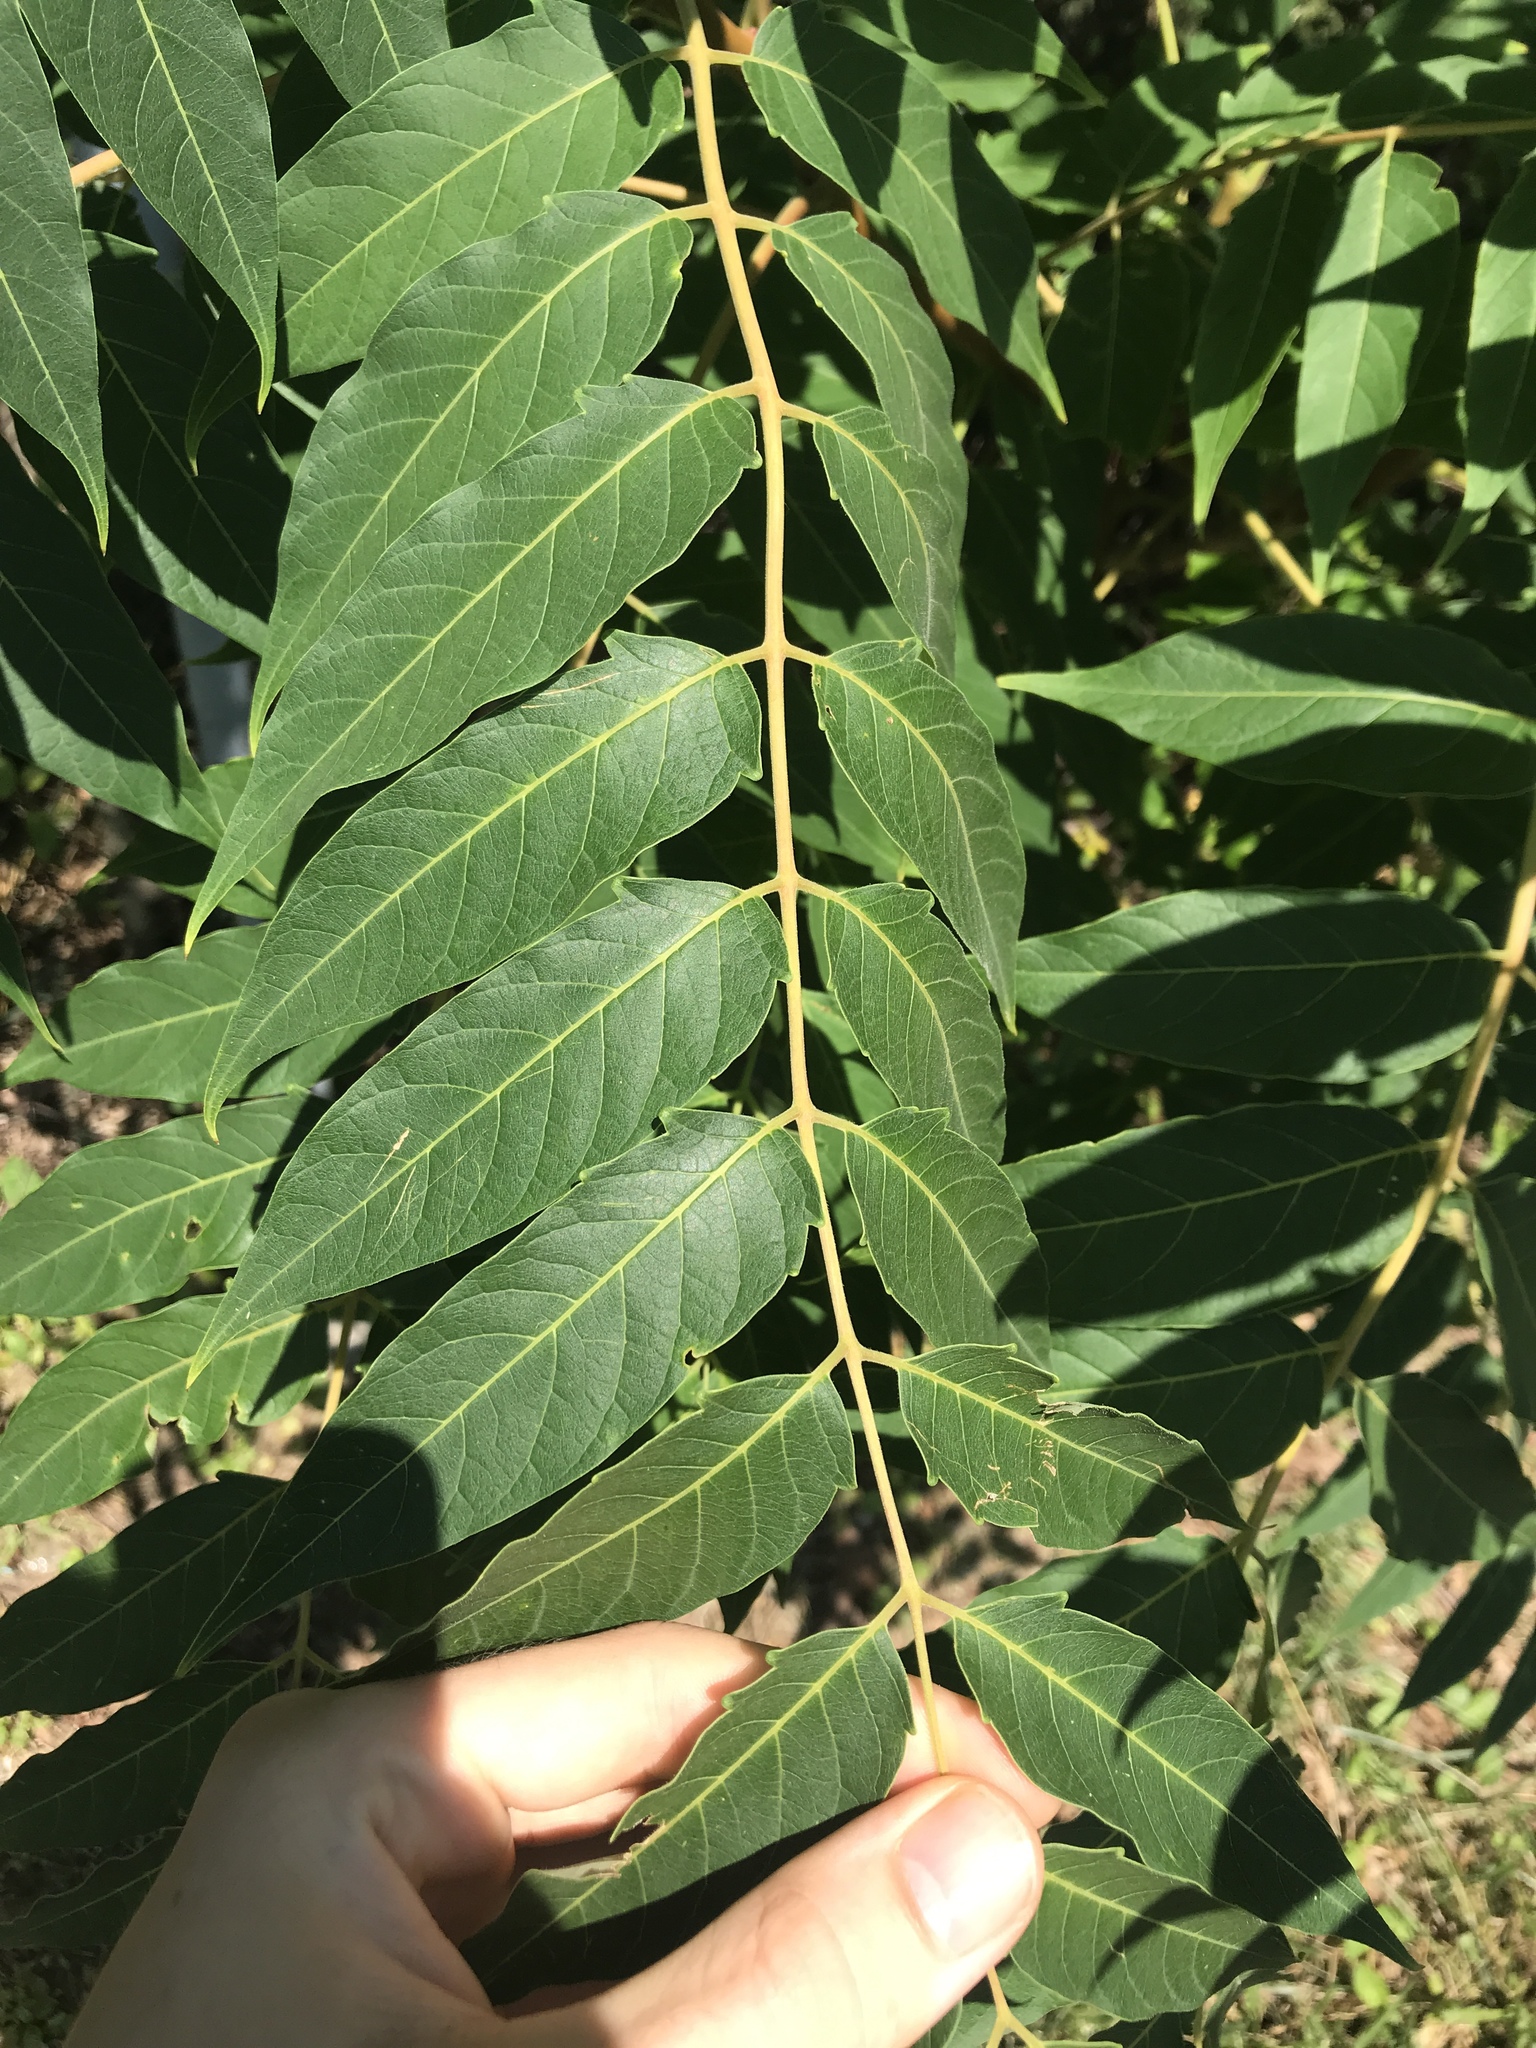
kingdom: Plantae
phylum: Tracheophyta
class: Magnoliopsida
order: Sapindales
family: Simaroubaceae
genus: Ailanthus
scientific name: Ailanthus altissima
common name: Tree-of-heaven
